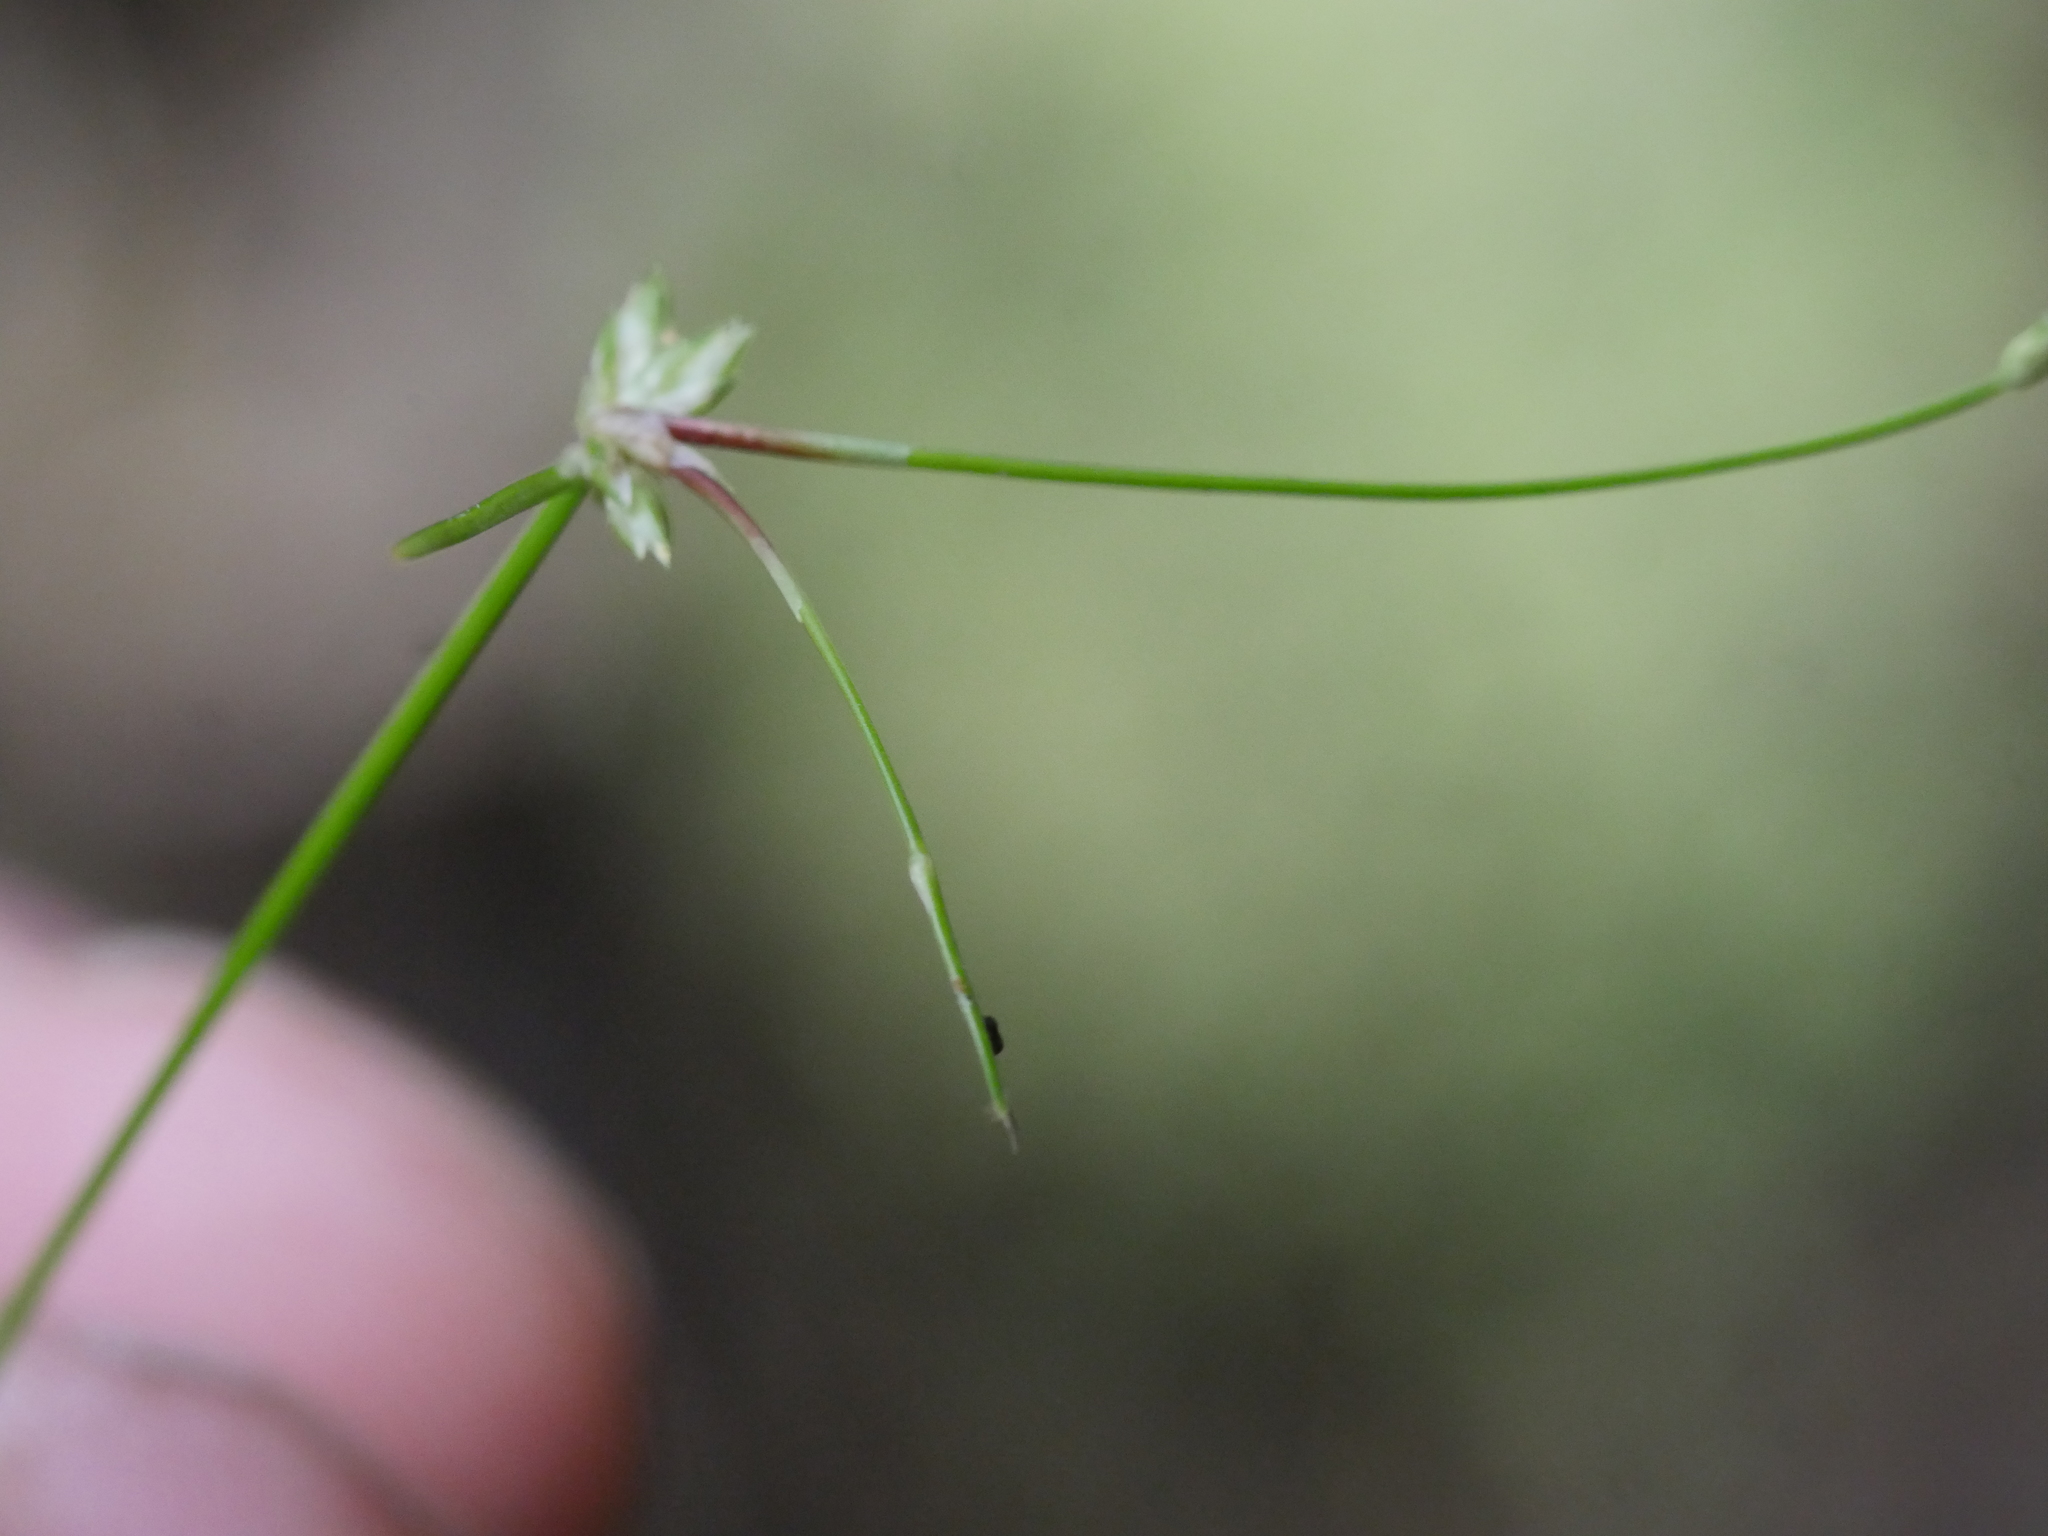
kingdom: Plantae
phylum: Tracheophyta
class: Liliopsida
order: Poales
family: Cyperaceae
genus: Isolepis
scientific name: Isolepis reticularis
